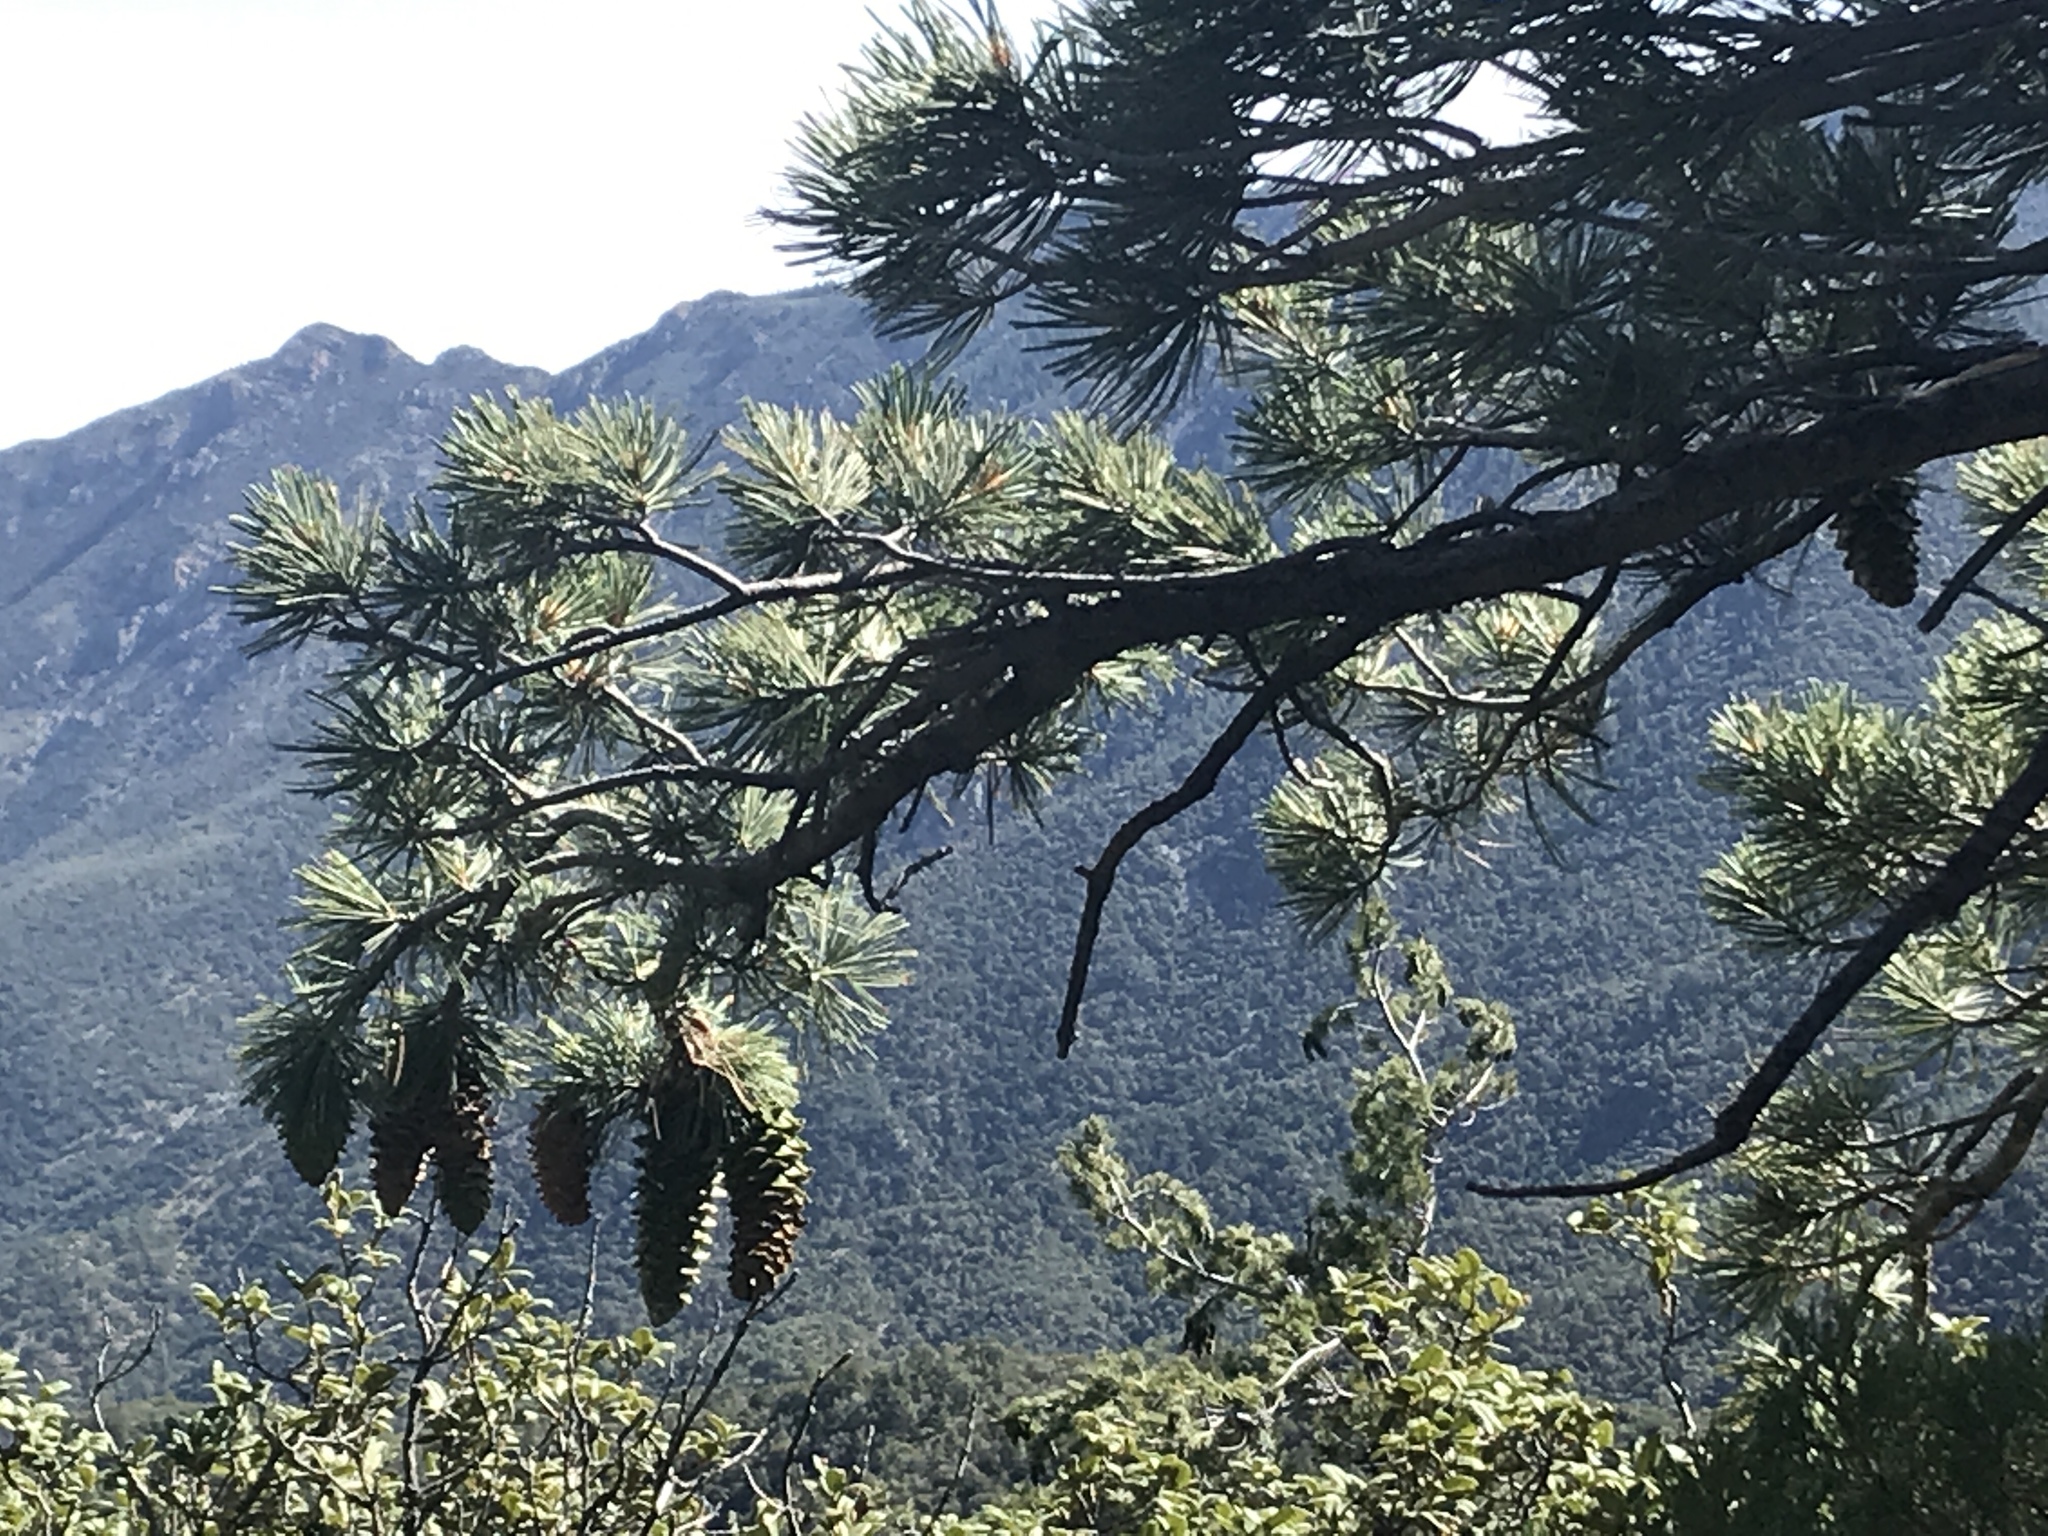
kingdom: Plantae
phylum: Tracheophyta
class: Pinopsida
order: Pinales
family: Pinaceae
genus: Pinus
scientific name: Pinus strobiformis
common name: Southwestern white pine
